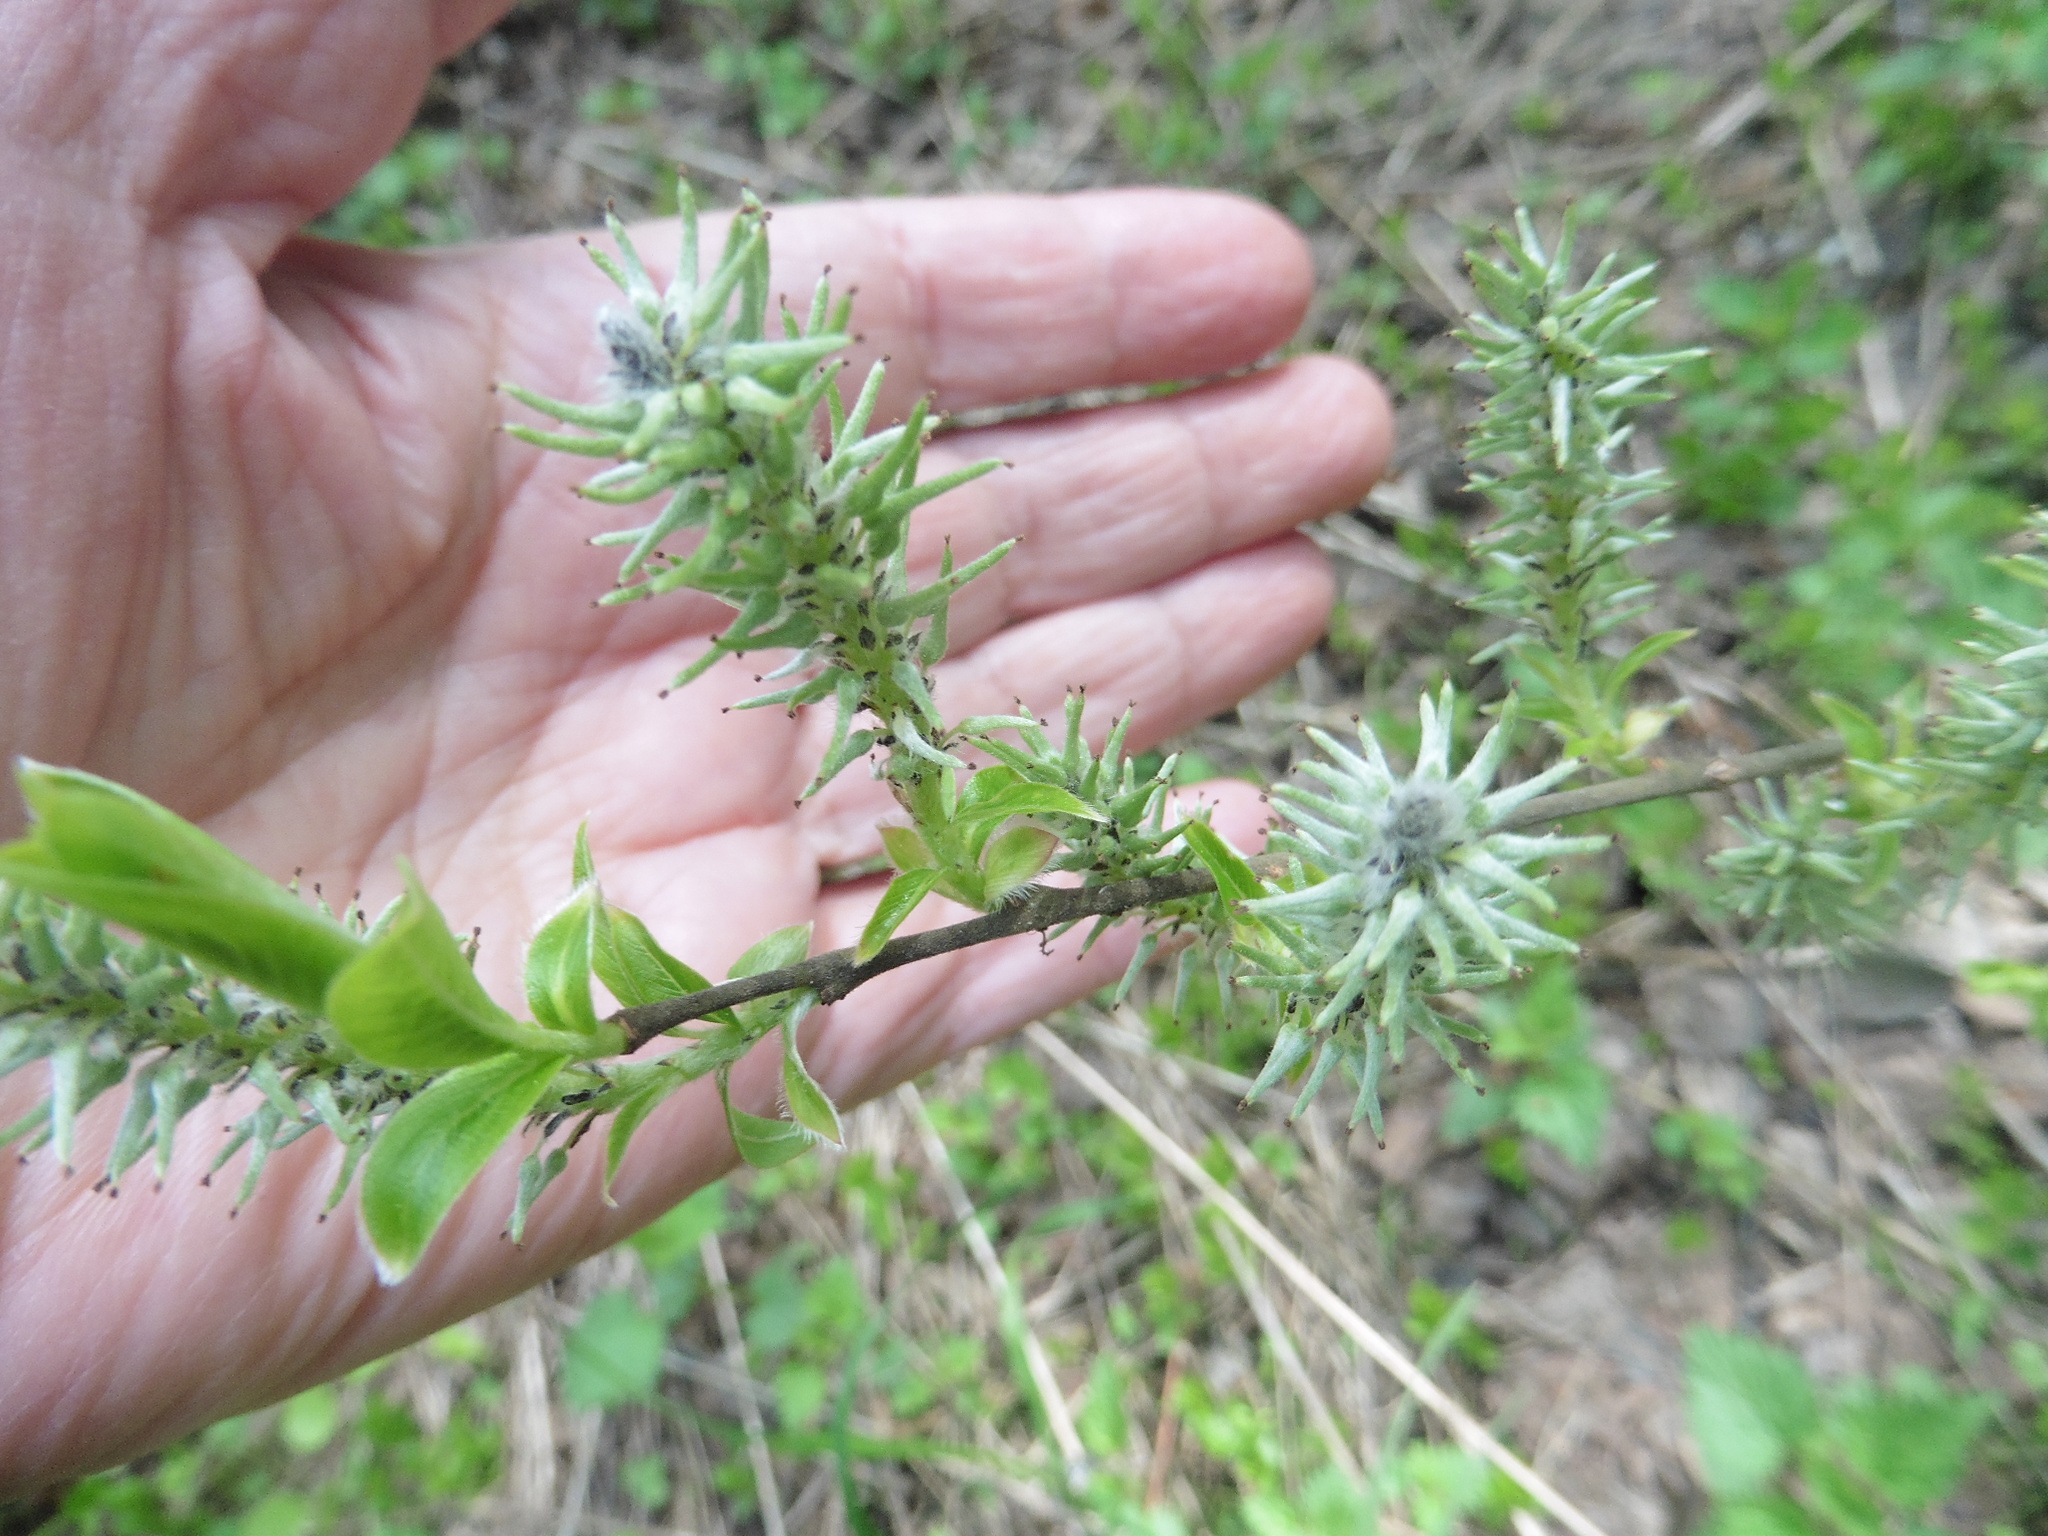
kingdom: Plantae
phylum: Tracheophyta
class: Magnoliopsida
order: Malpighiales
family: Salicaceae
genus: Salix
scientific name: Salix cinerea
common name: Common sallow
